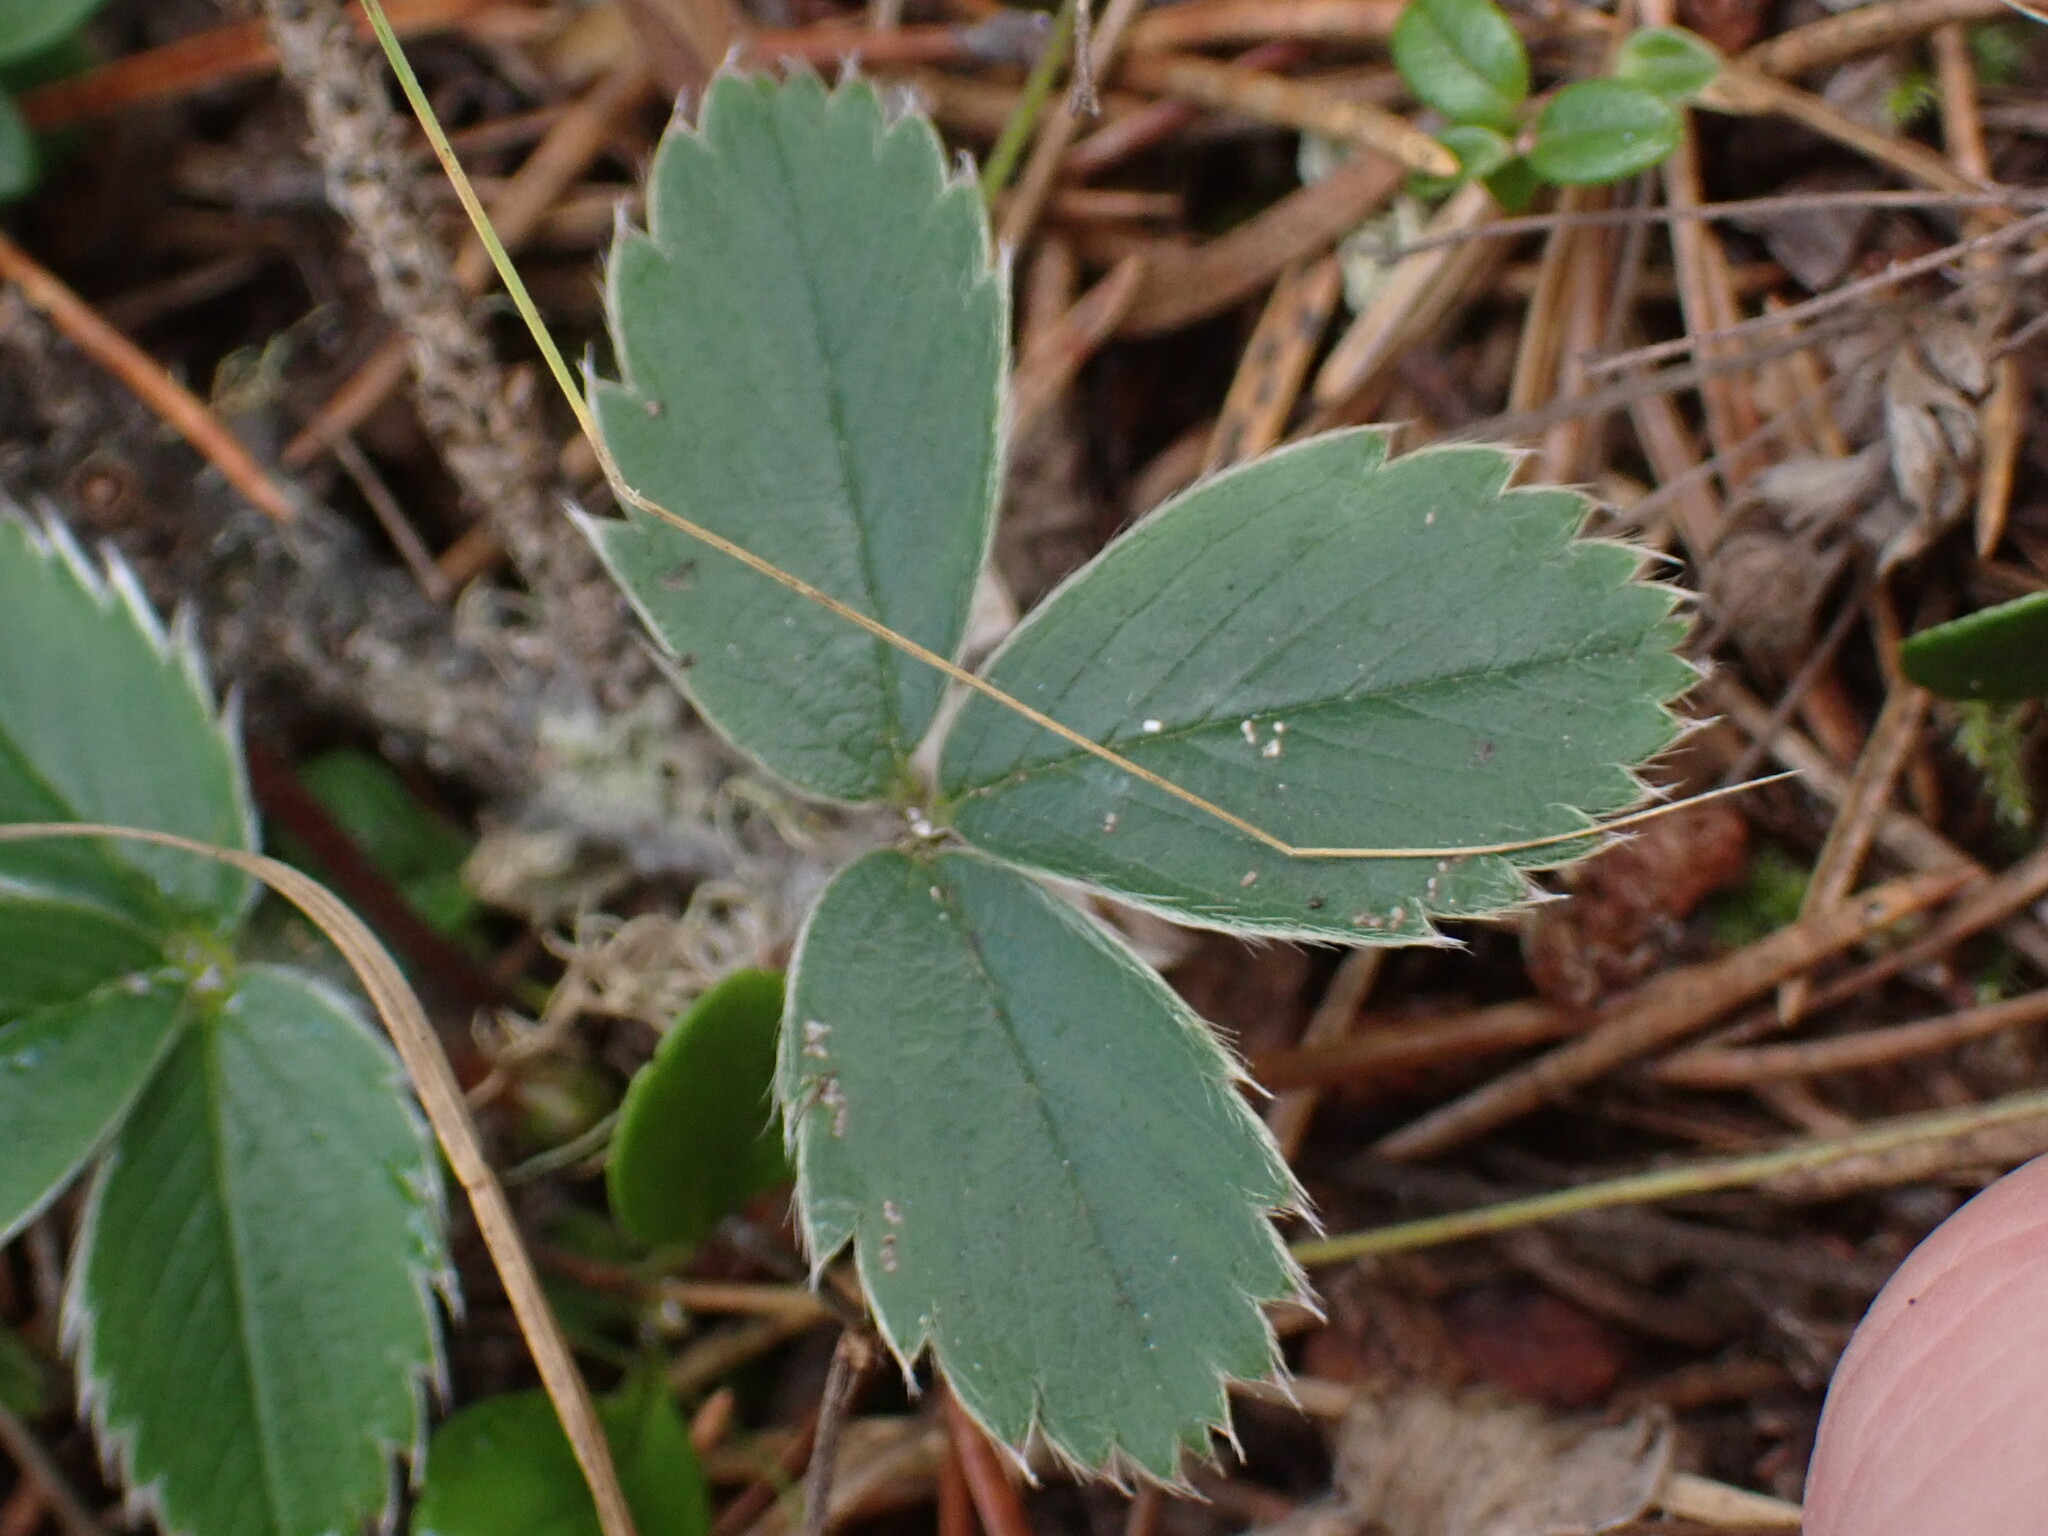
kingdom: Plantae
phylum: Tracheophyta
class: Magnoliopsida
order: Rosales
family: Rosaceae
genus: Fragaria
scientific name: Fragaria virginiana
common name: Thickleaved wild strawberry
